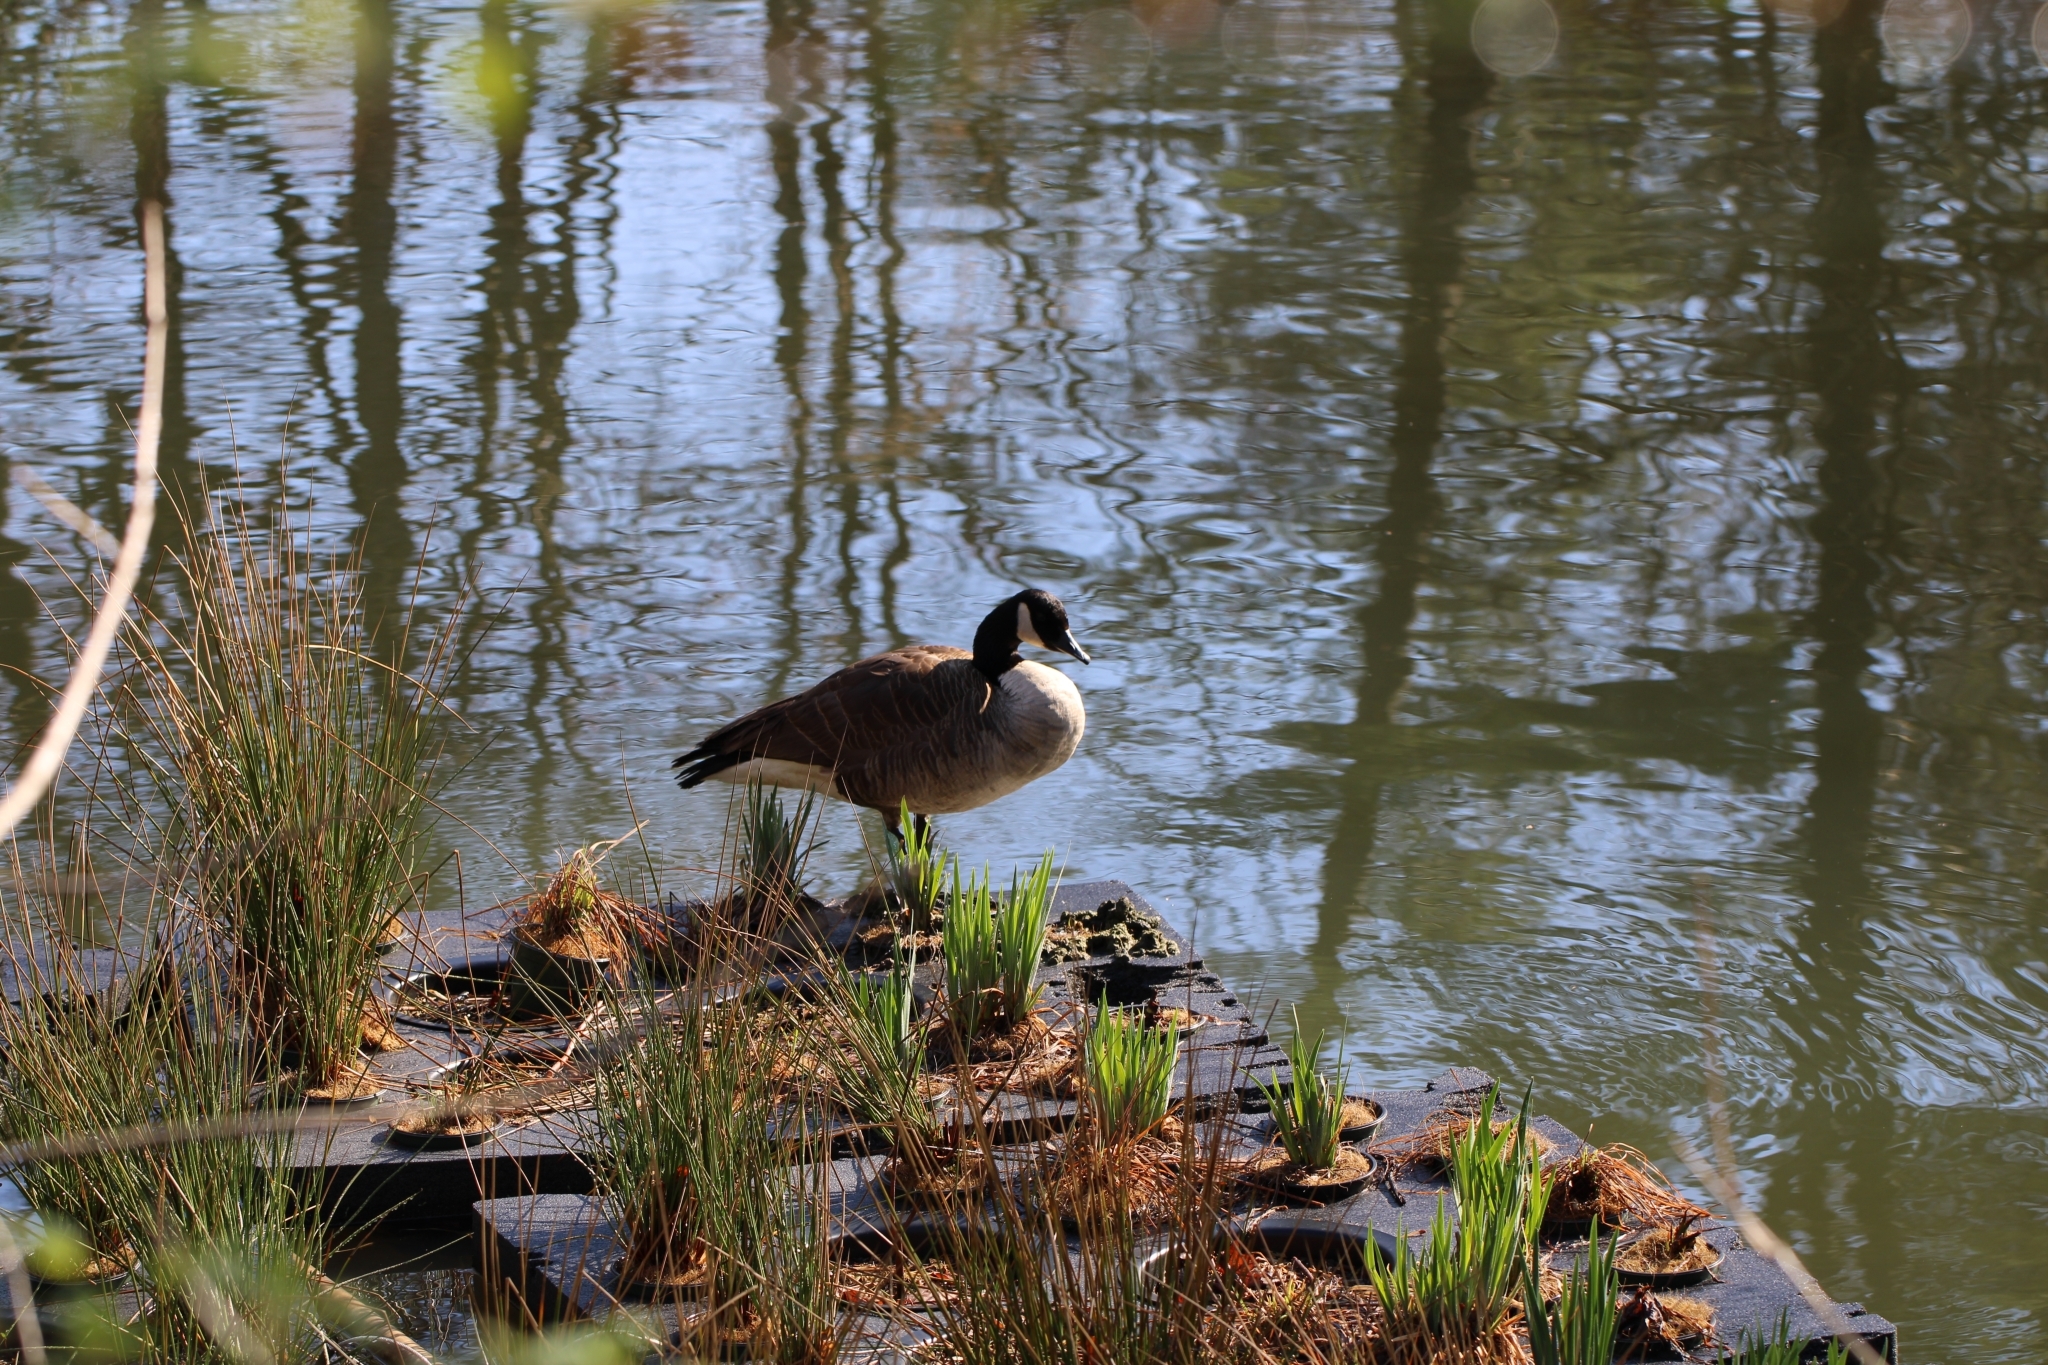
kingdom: Animalia
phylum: Chordata
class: Aves
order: Anseriformes
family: Anatidae
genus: Branta
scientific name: Branta canadensis
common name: Canada goose
